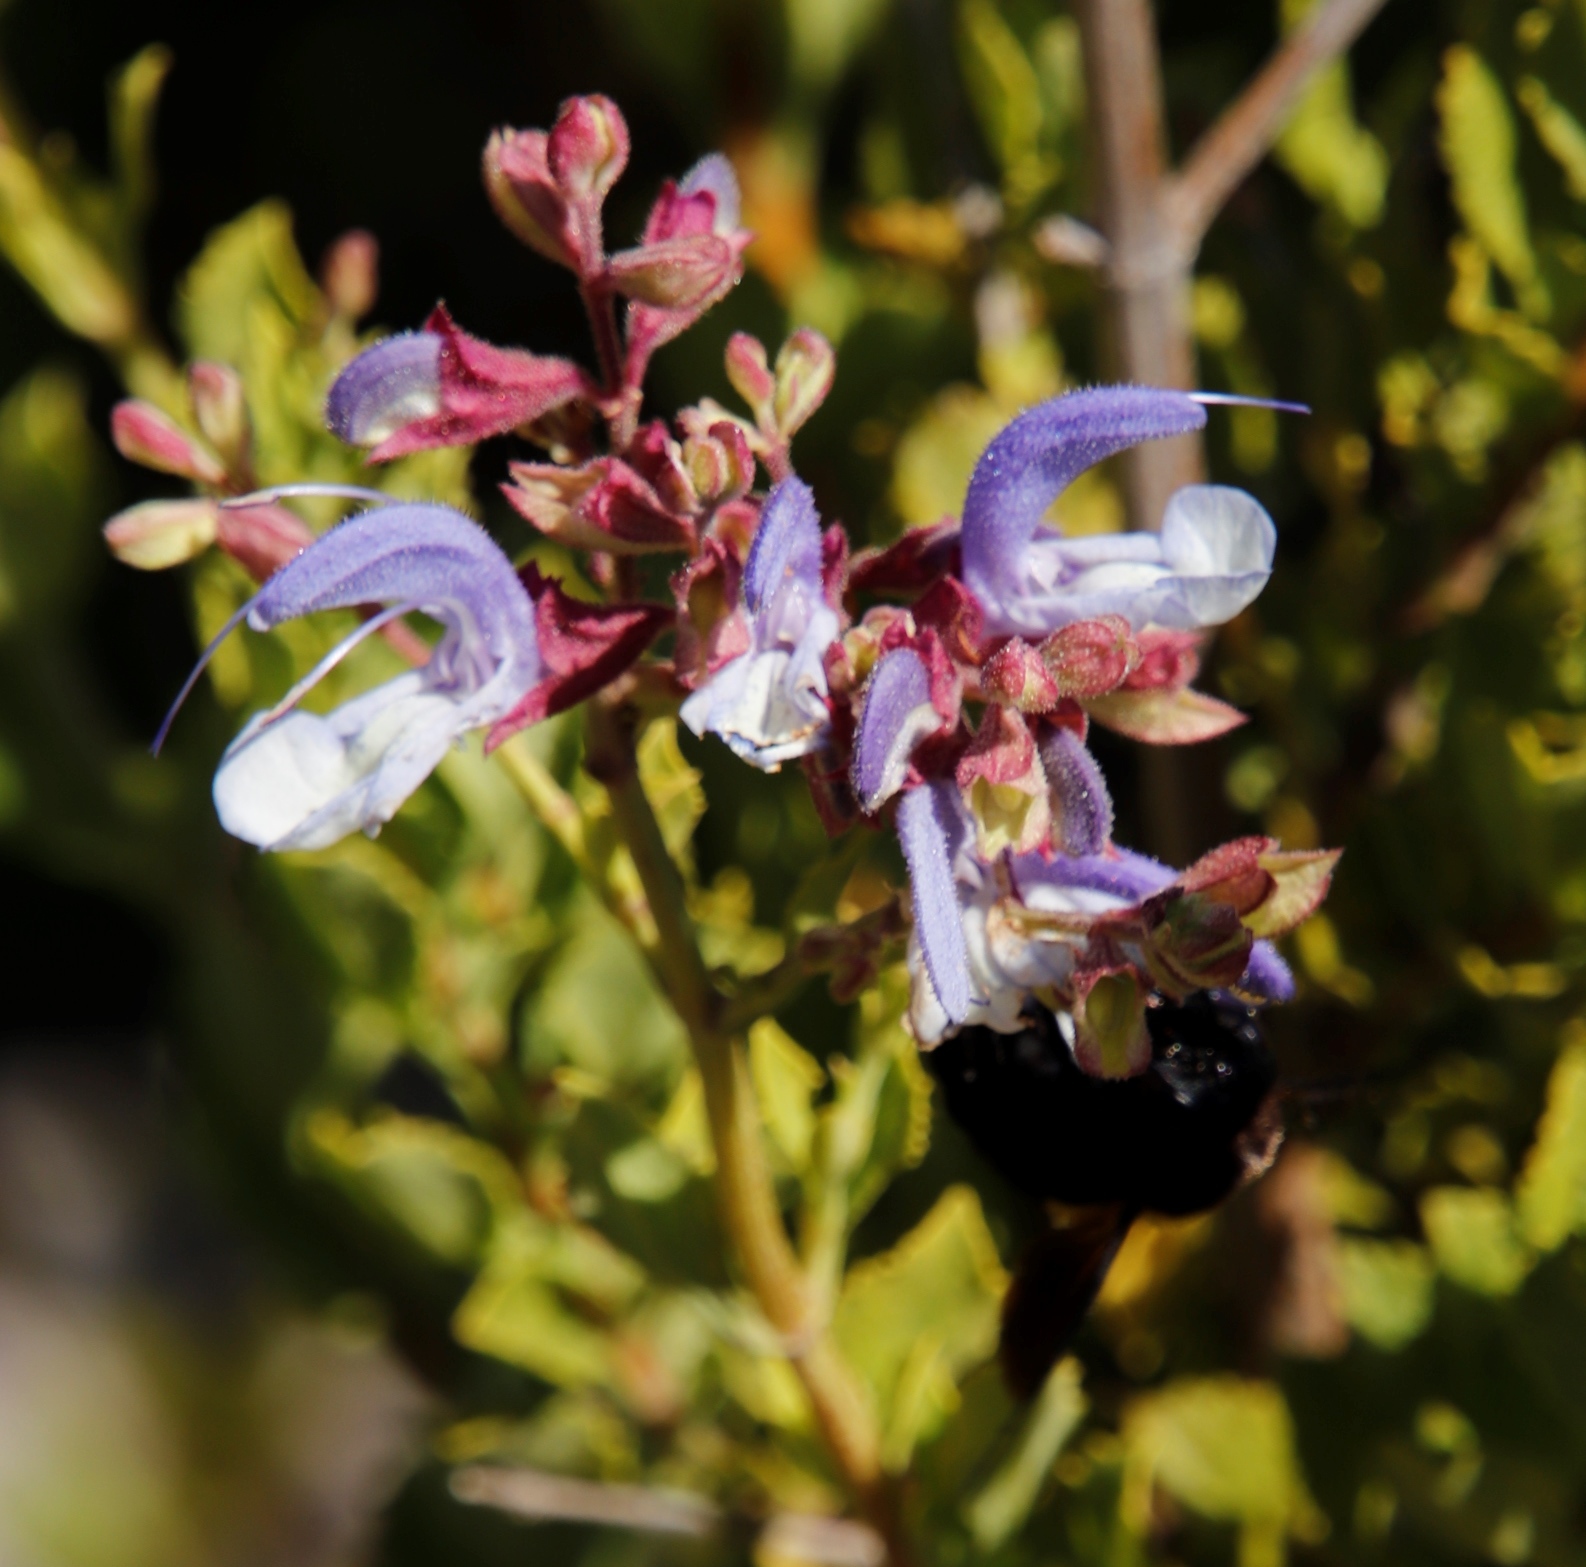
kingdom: Animalia
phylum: Arthropoda
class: Insecta
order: Hymenoptera
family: Apidae
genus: Xylocopa
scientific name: Xylocopa caffra
